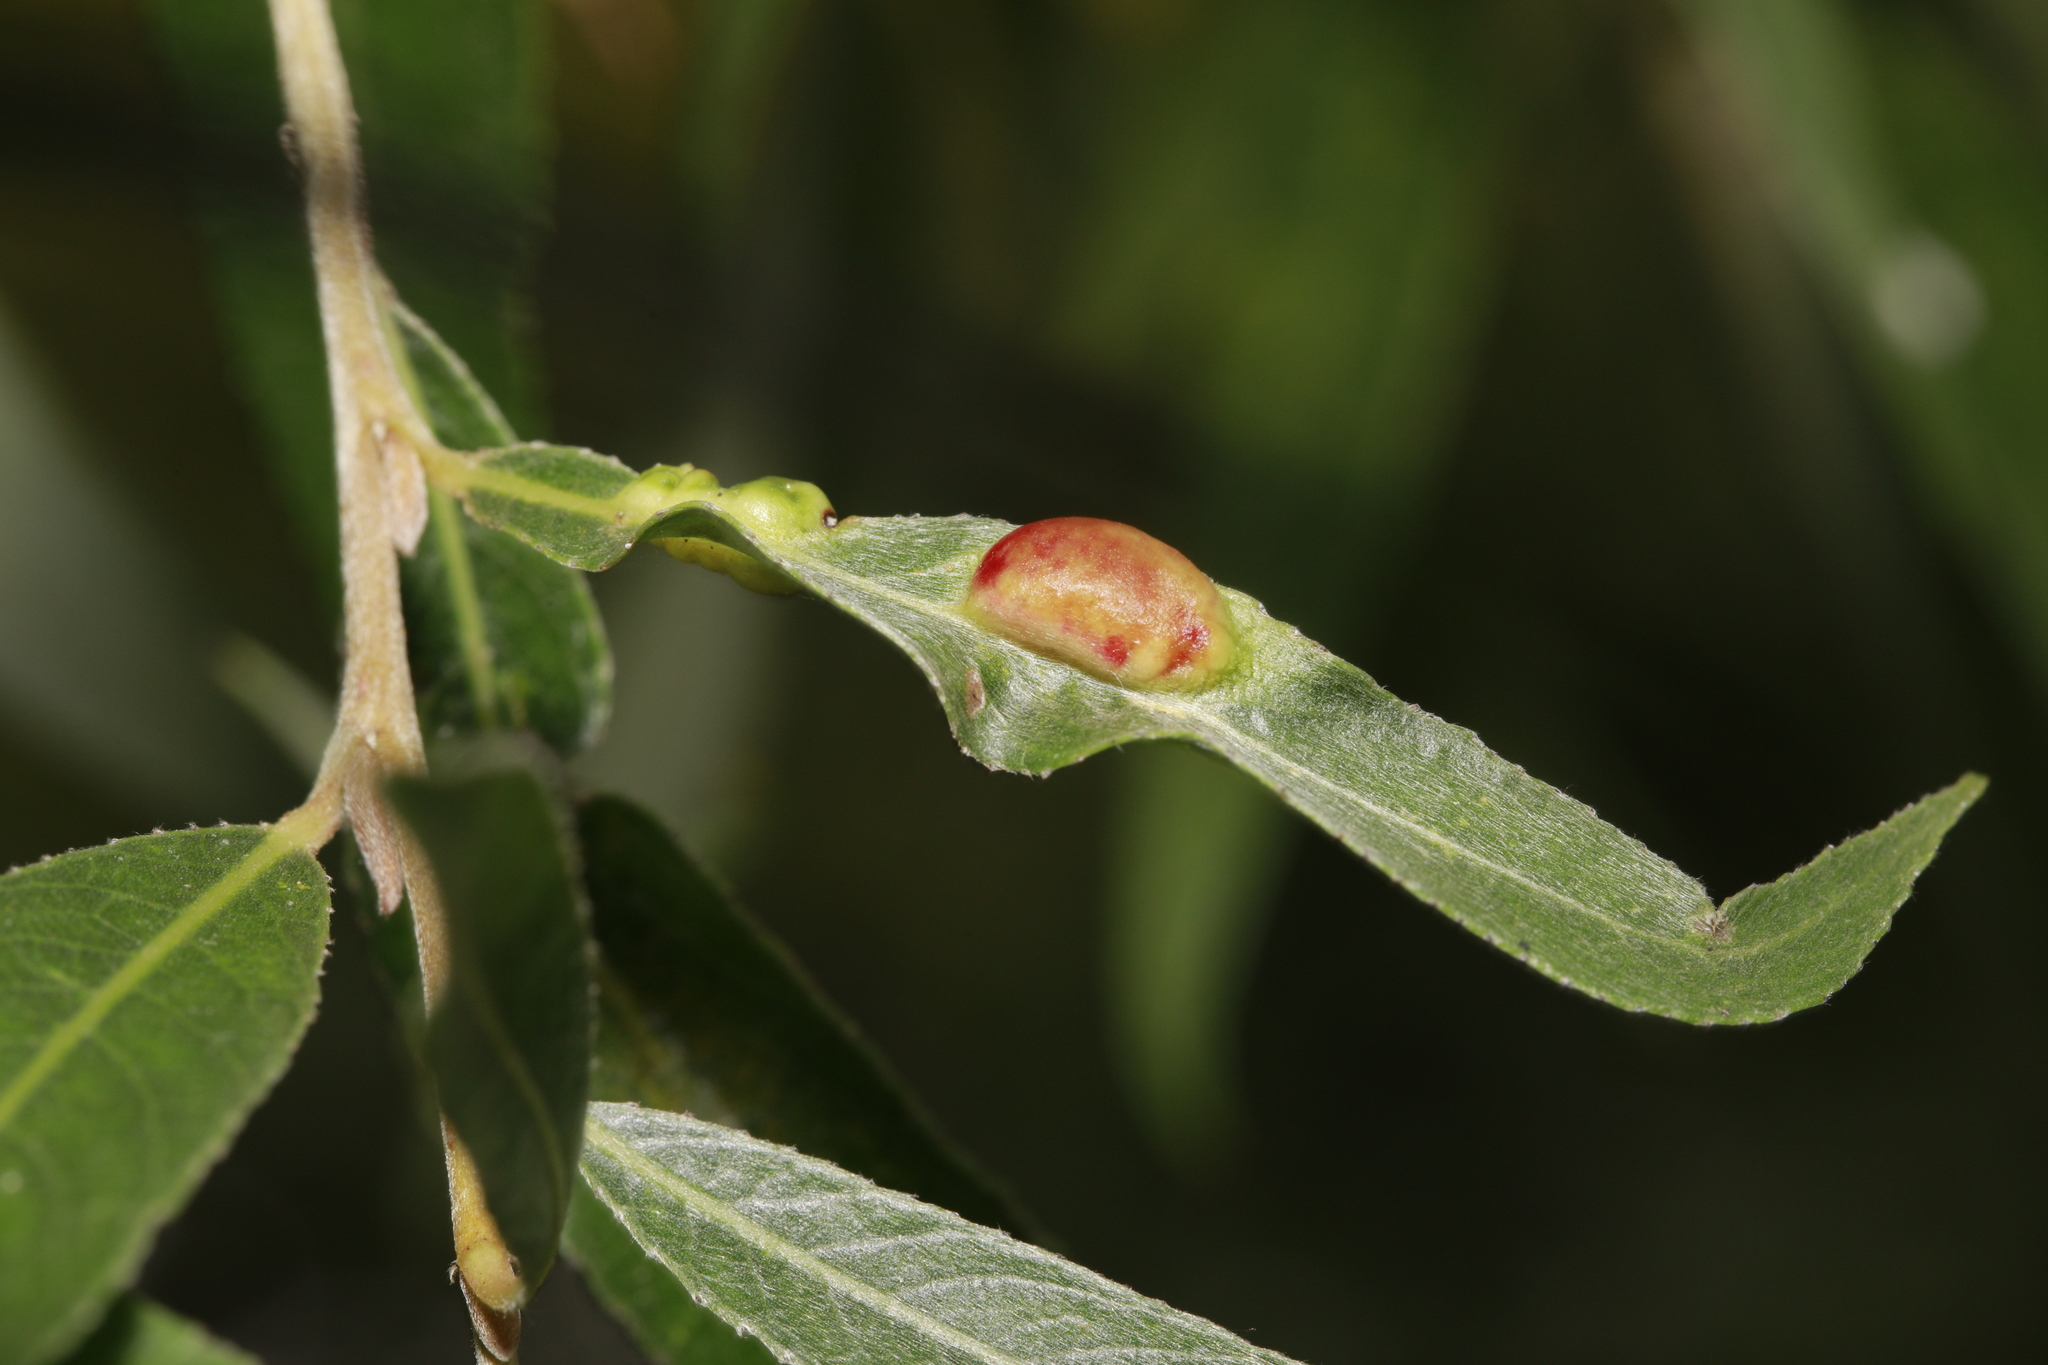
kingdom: Animalia
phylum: Arthropoda
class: Insecta
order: Hymenoptera
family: Tenthredinidae
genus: Pontania
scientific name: Pontania proxima
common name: Common sawfly
